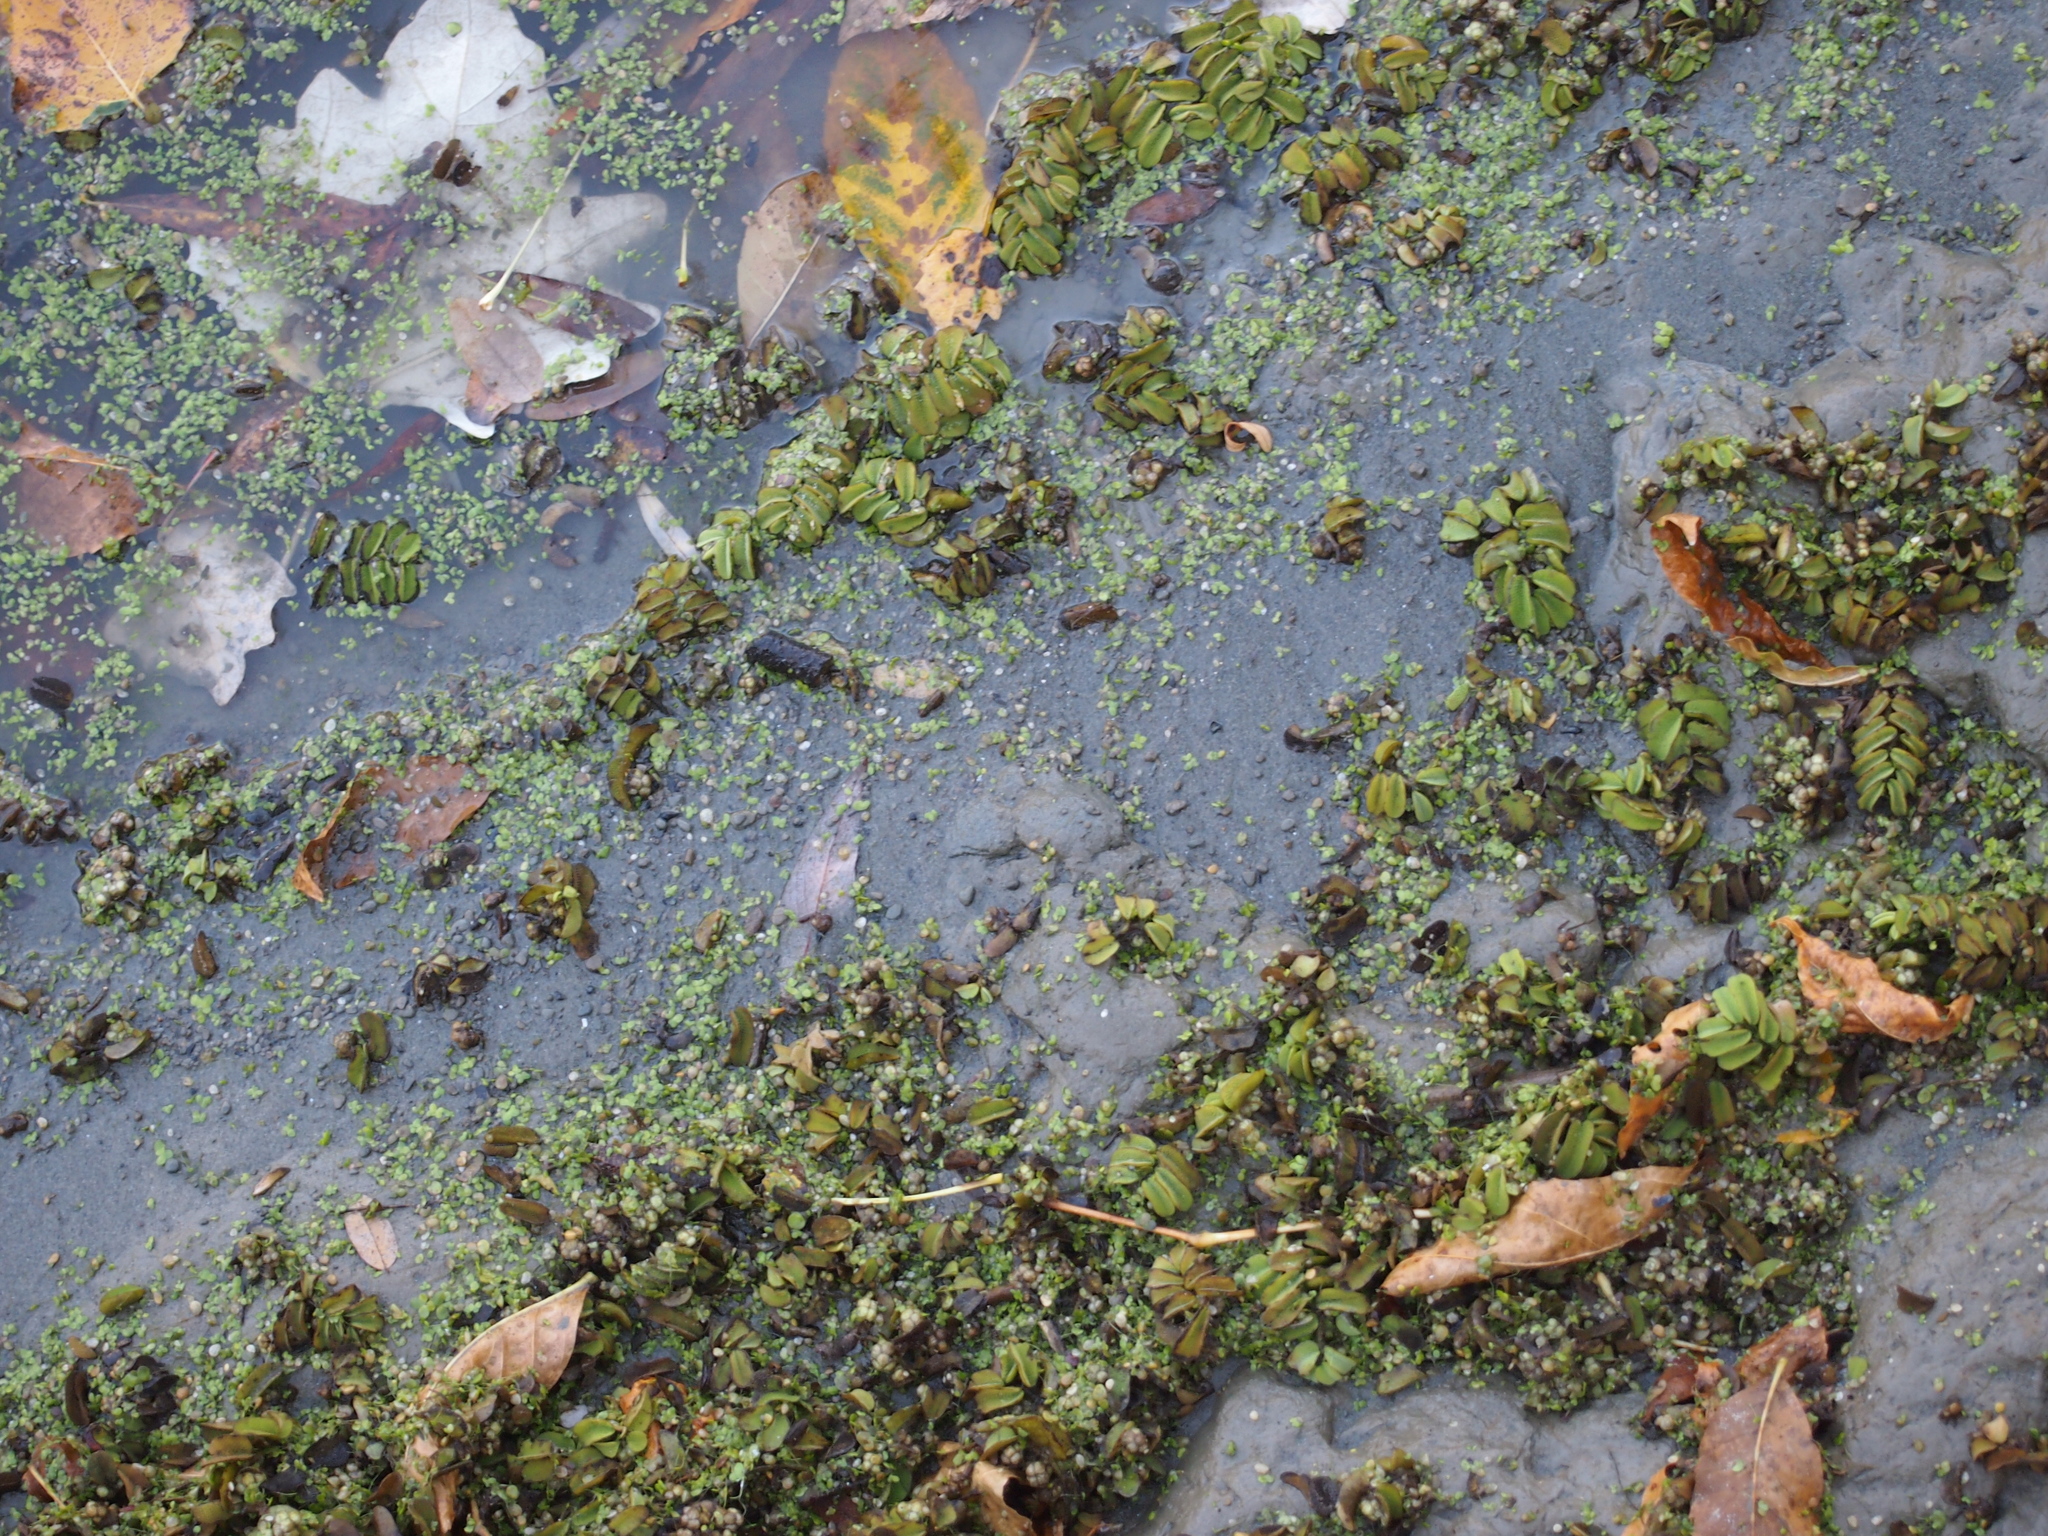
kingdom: Plantae
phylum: Tracheophyta
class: Polypodiopsida
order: Salviniales
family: Salviniaceae
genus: Salvinia
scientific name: Salvinia natans
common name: Floating fern
